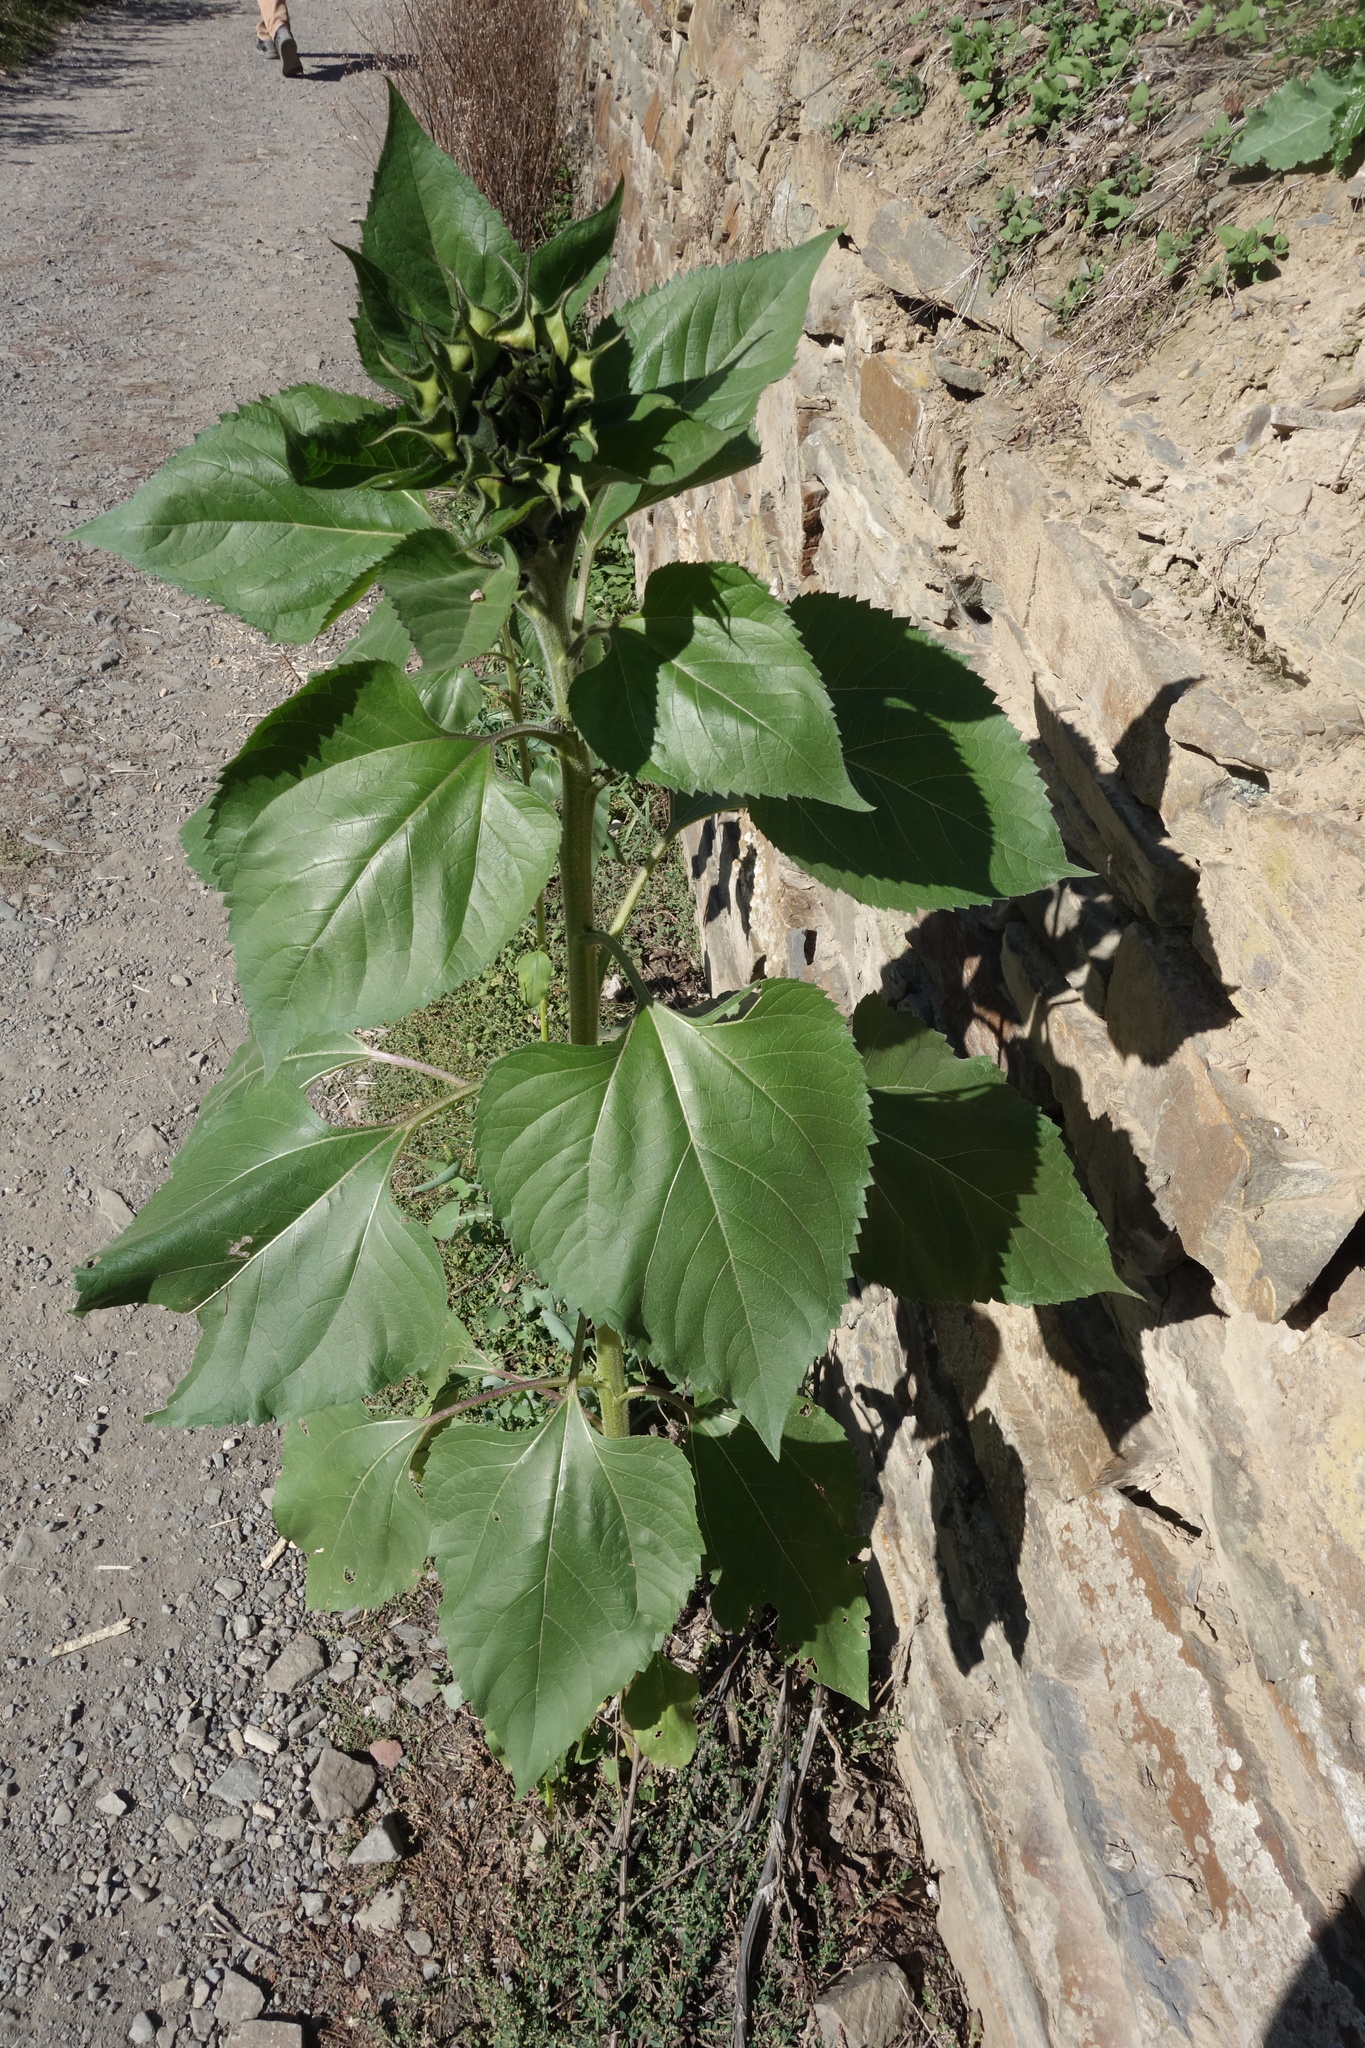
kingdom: Plantae
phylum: Tracheophyta
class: Magnoliopsida
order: Asterales
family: Asteraceae
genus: Helianthus
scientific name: Helianthus annuus
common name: Sunflower
